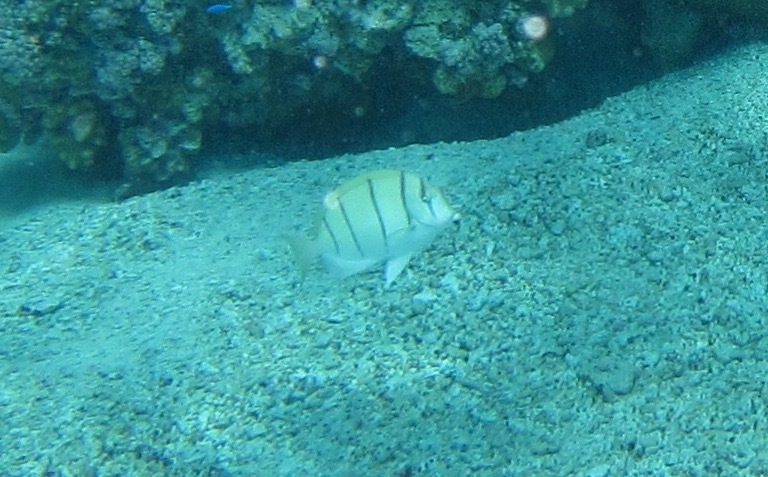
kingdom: Animalia
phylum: Chordata
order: Perciformes
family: Acanthuridae
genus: Acanthurus
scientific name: Acanthurus triostegus
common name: Convict surgeonfish
